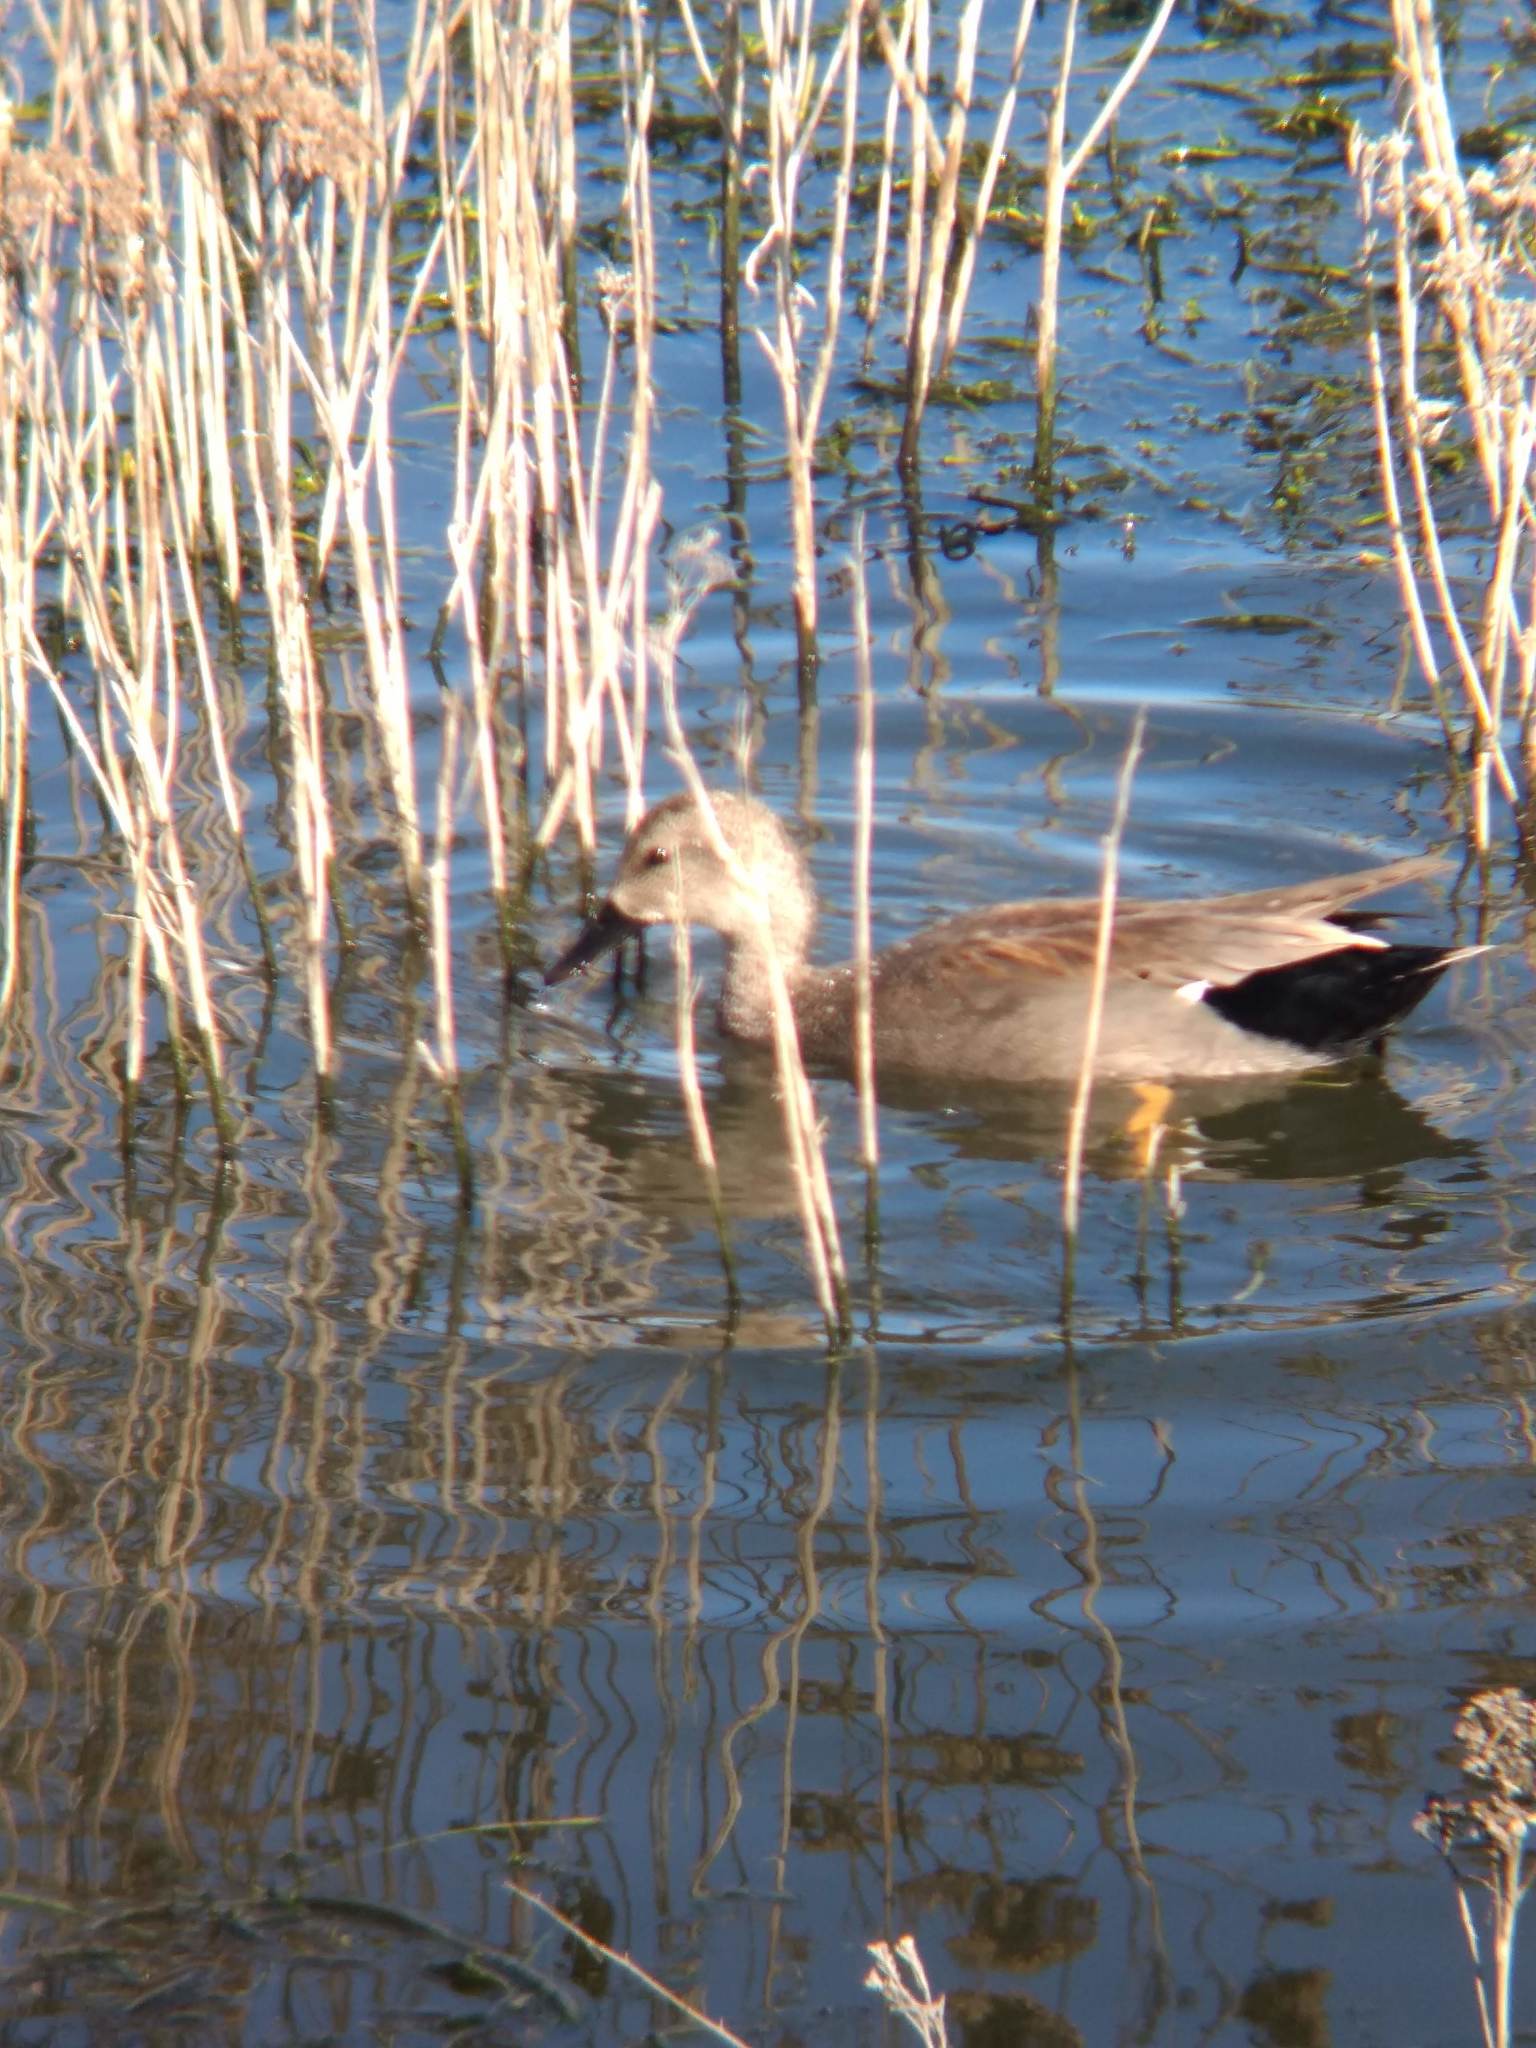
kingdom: Animalia
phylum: Chordata
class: Aves
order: Anseriformes
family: Anatidae
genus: Mareca
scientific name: Mareca strepera
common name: Gadwall
